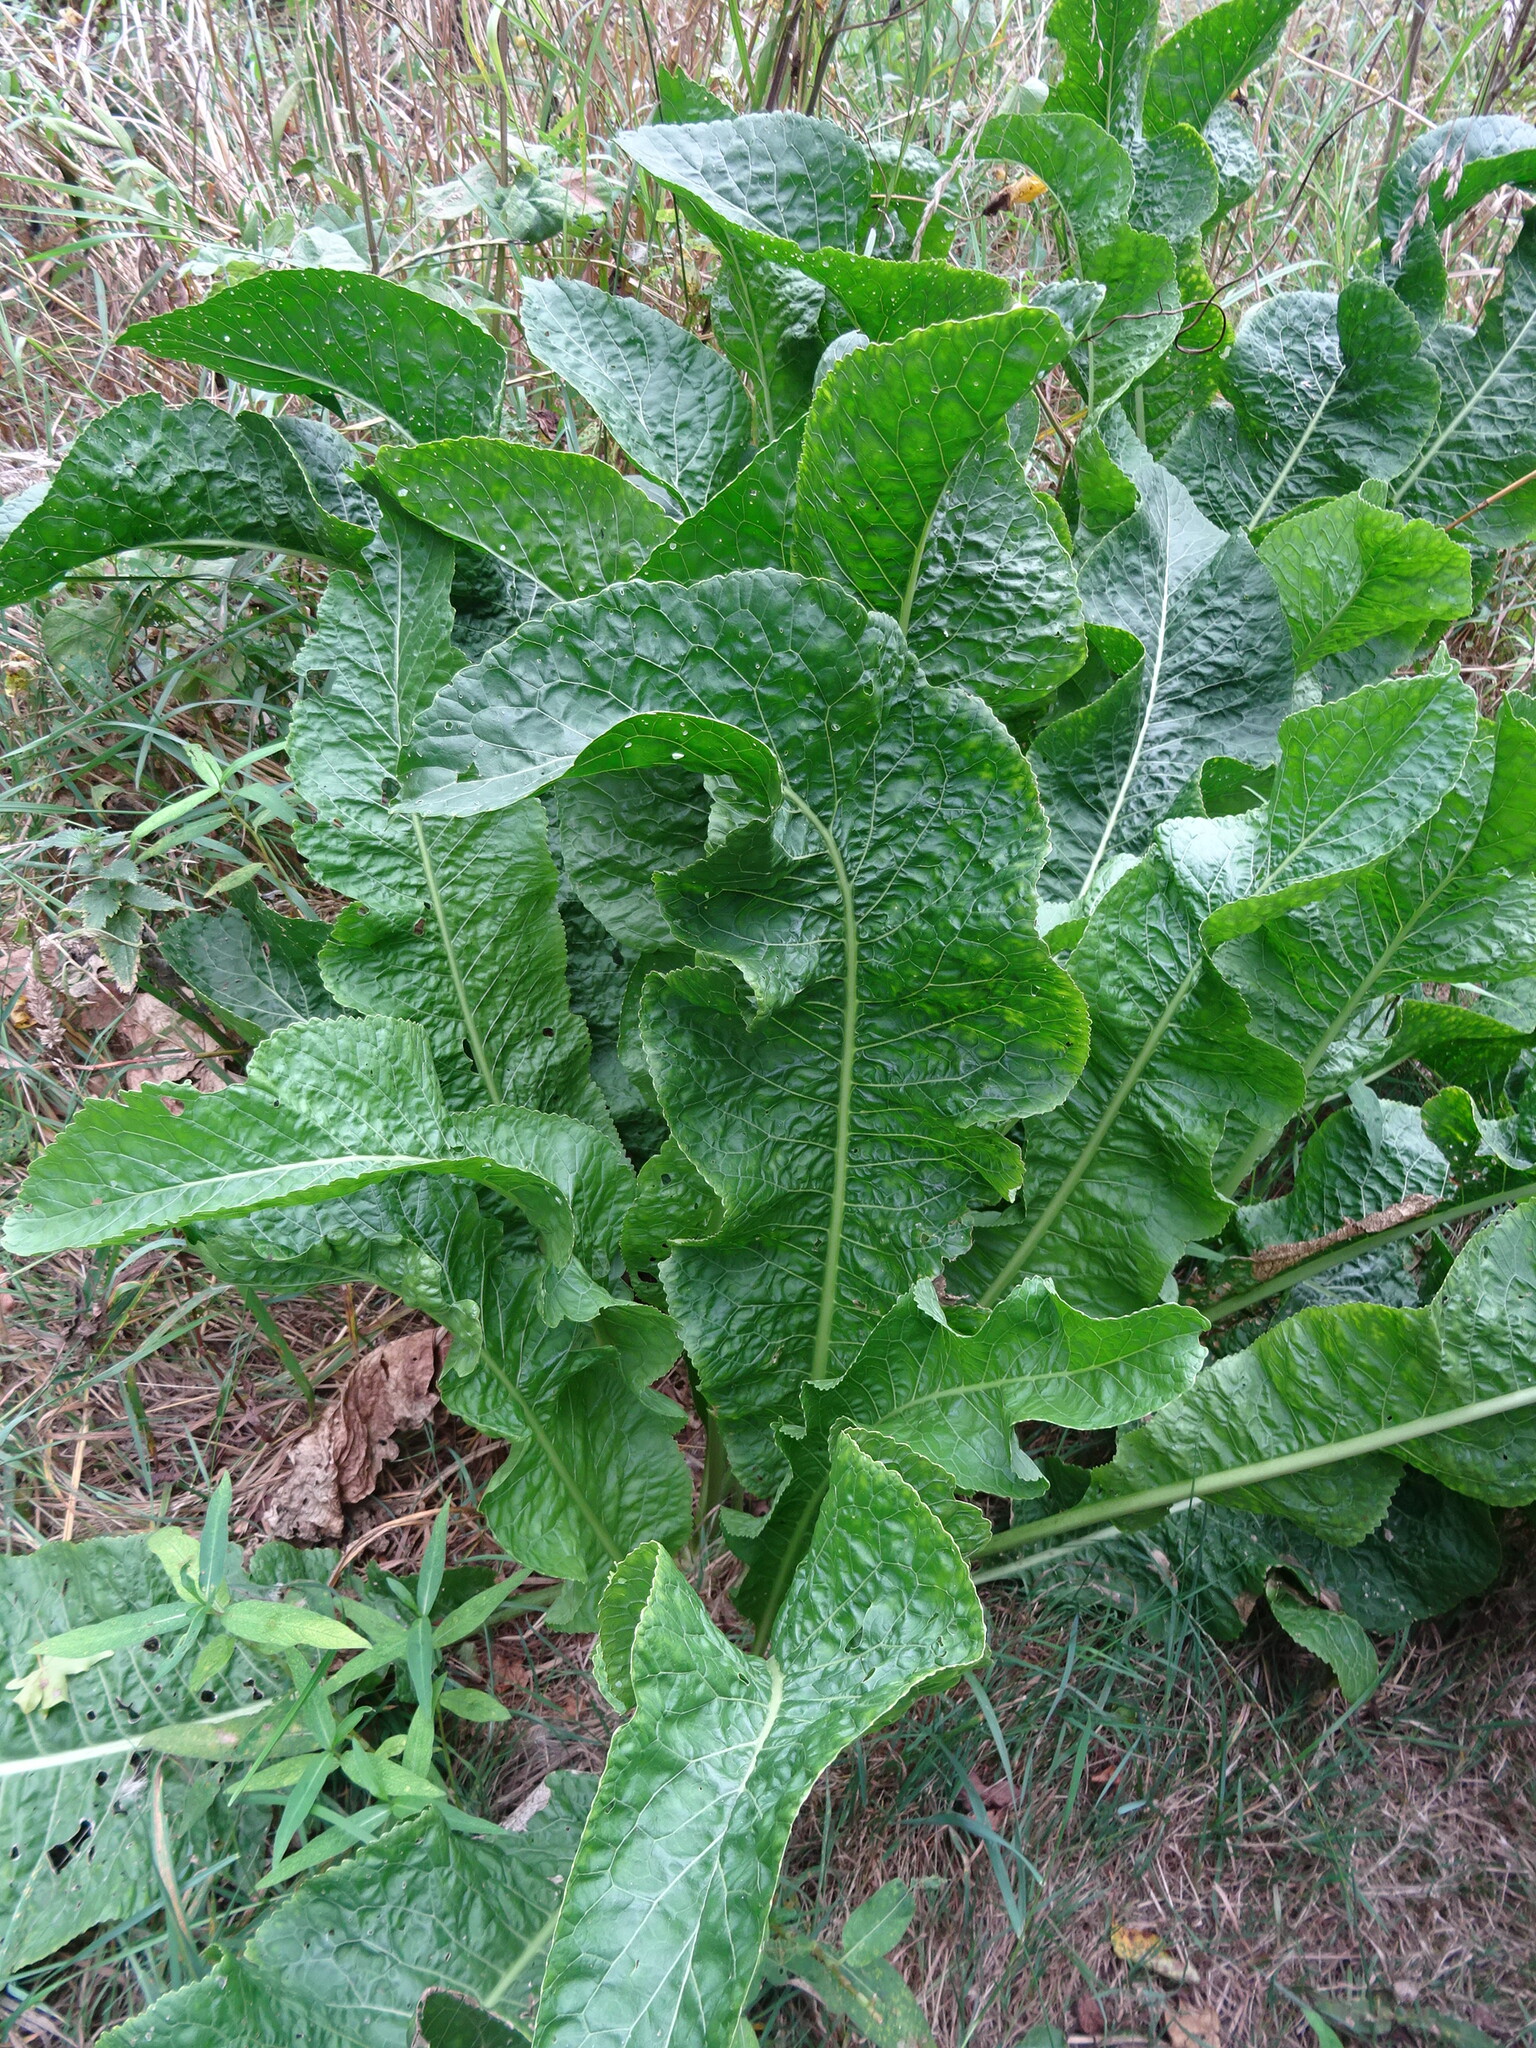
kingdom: Plantae
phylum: Tracheophyta
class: Magnoliopsida
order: Brassicales
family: Brassicaceae
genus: Armoracia
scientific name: Armoracia rusticana
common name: Horseradish
